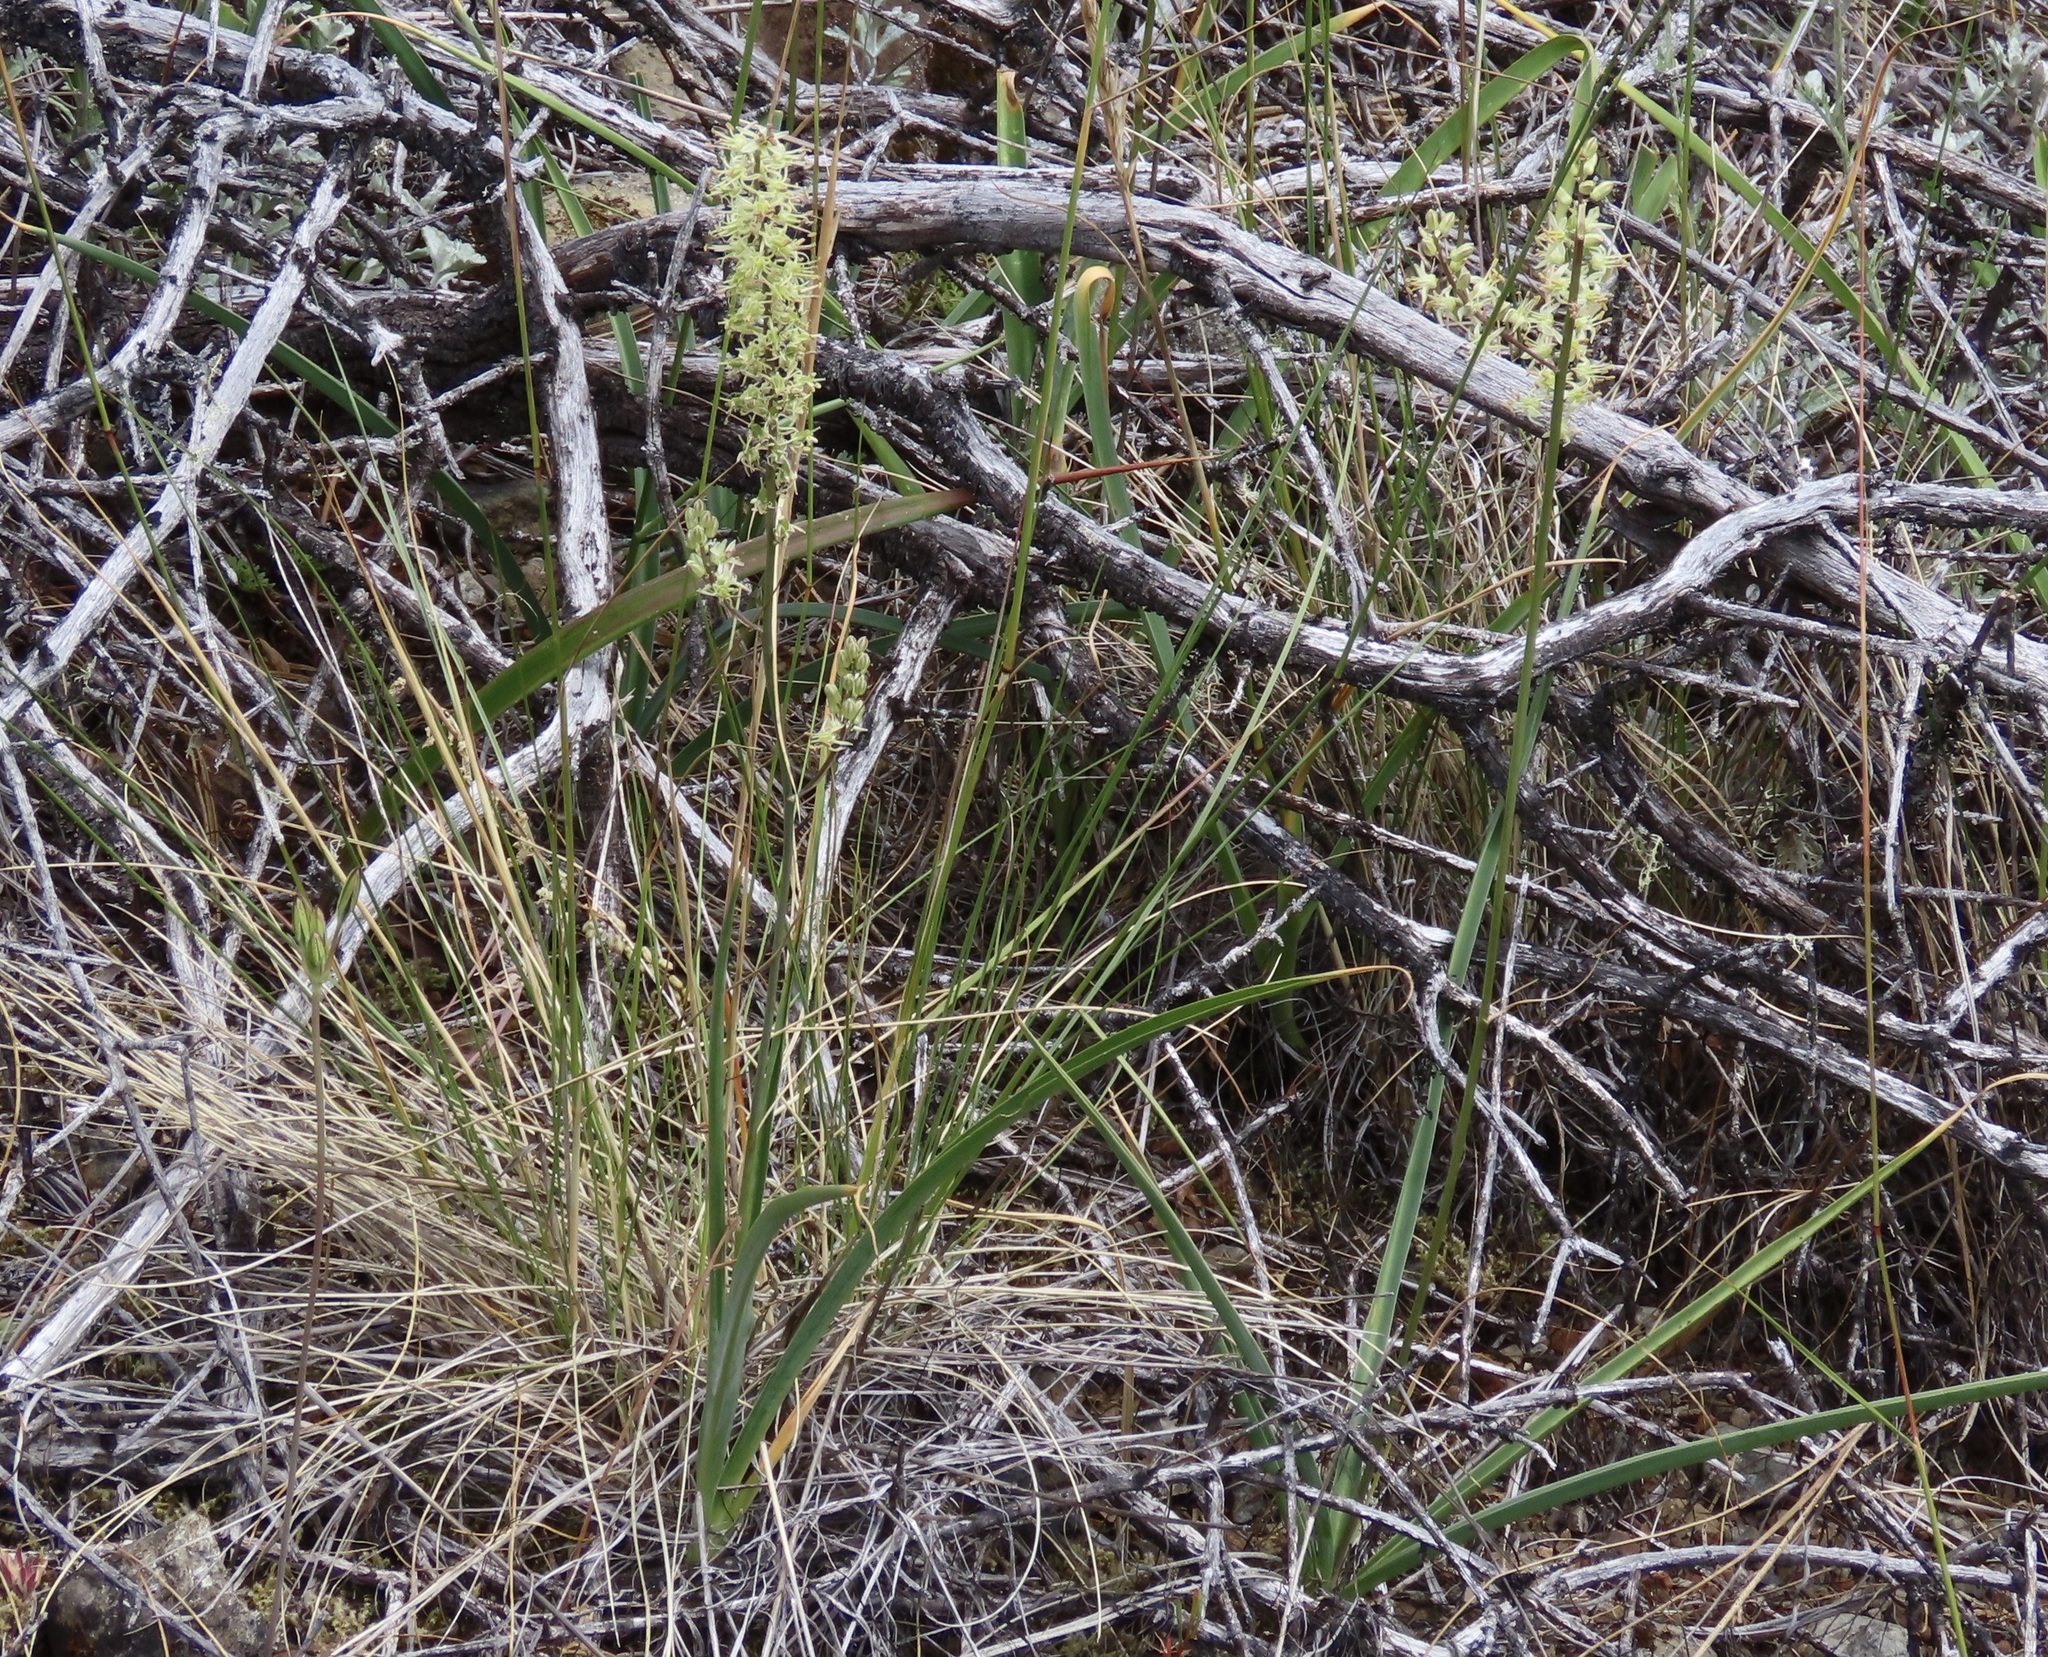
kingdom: Plantae
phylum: Tracheophyta
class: Liliopsida
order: Asparagales
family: Asparagaceae
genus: Hastingsia
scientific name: Hastingsia serpentinicola
